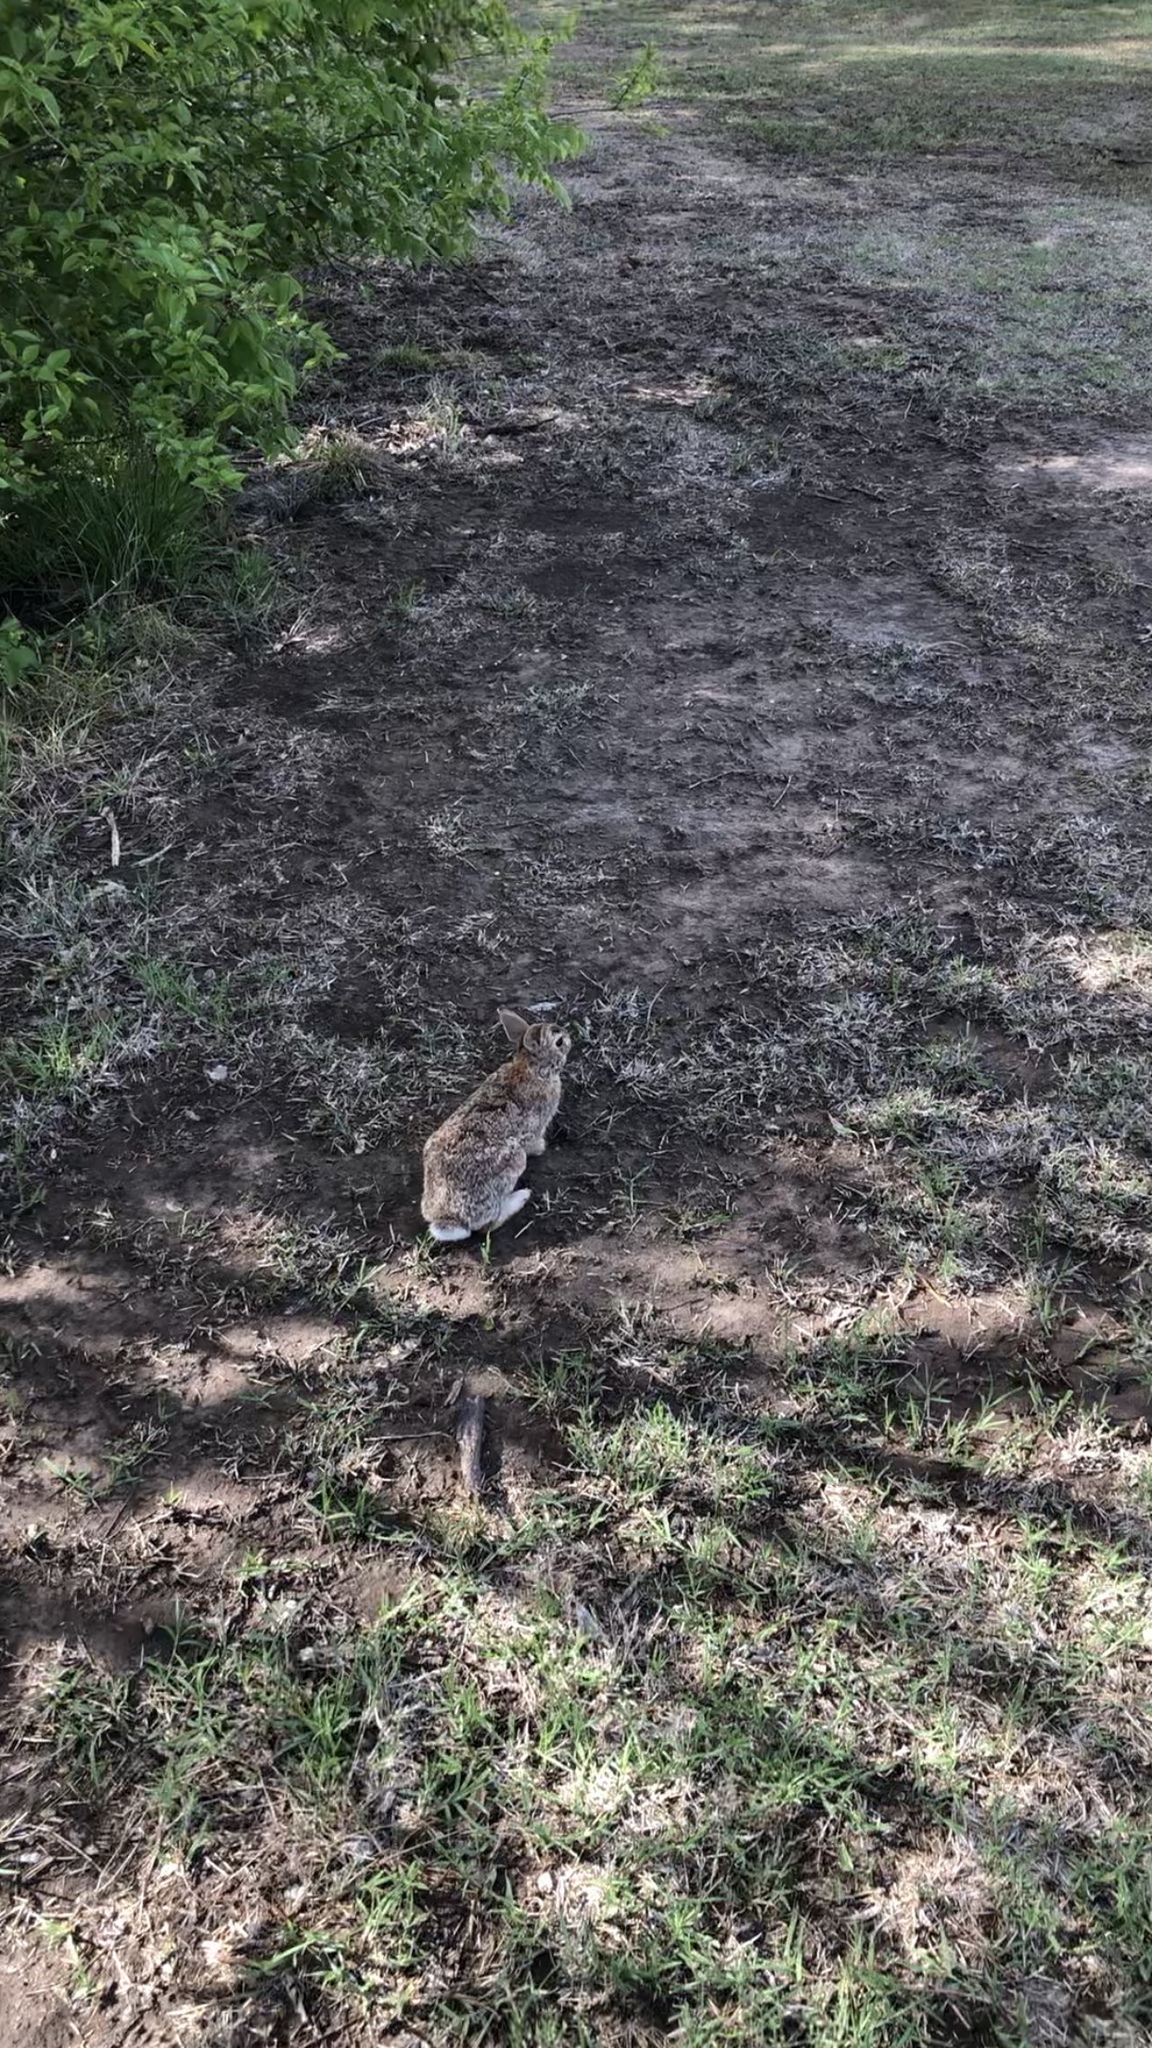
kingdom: Animalia
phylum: Chordata
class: Mammalia
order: Lagomorpha
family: Leporidae
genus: Sylvilagus
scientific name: Sylvilagus floridanus
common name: Eastern cottontail
